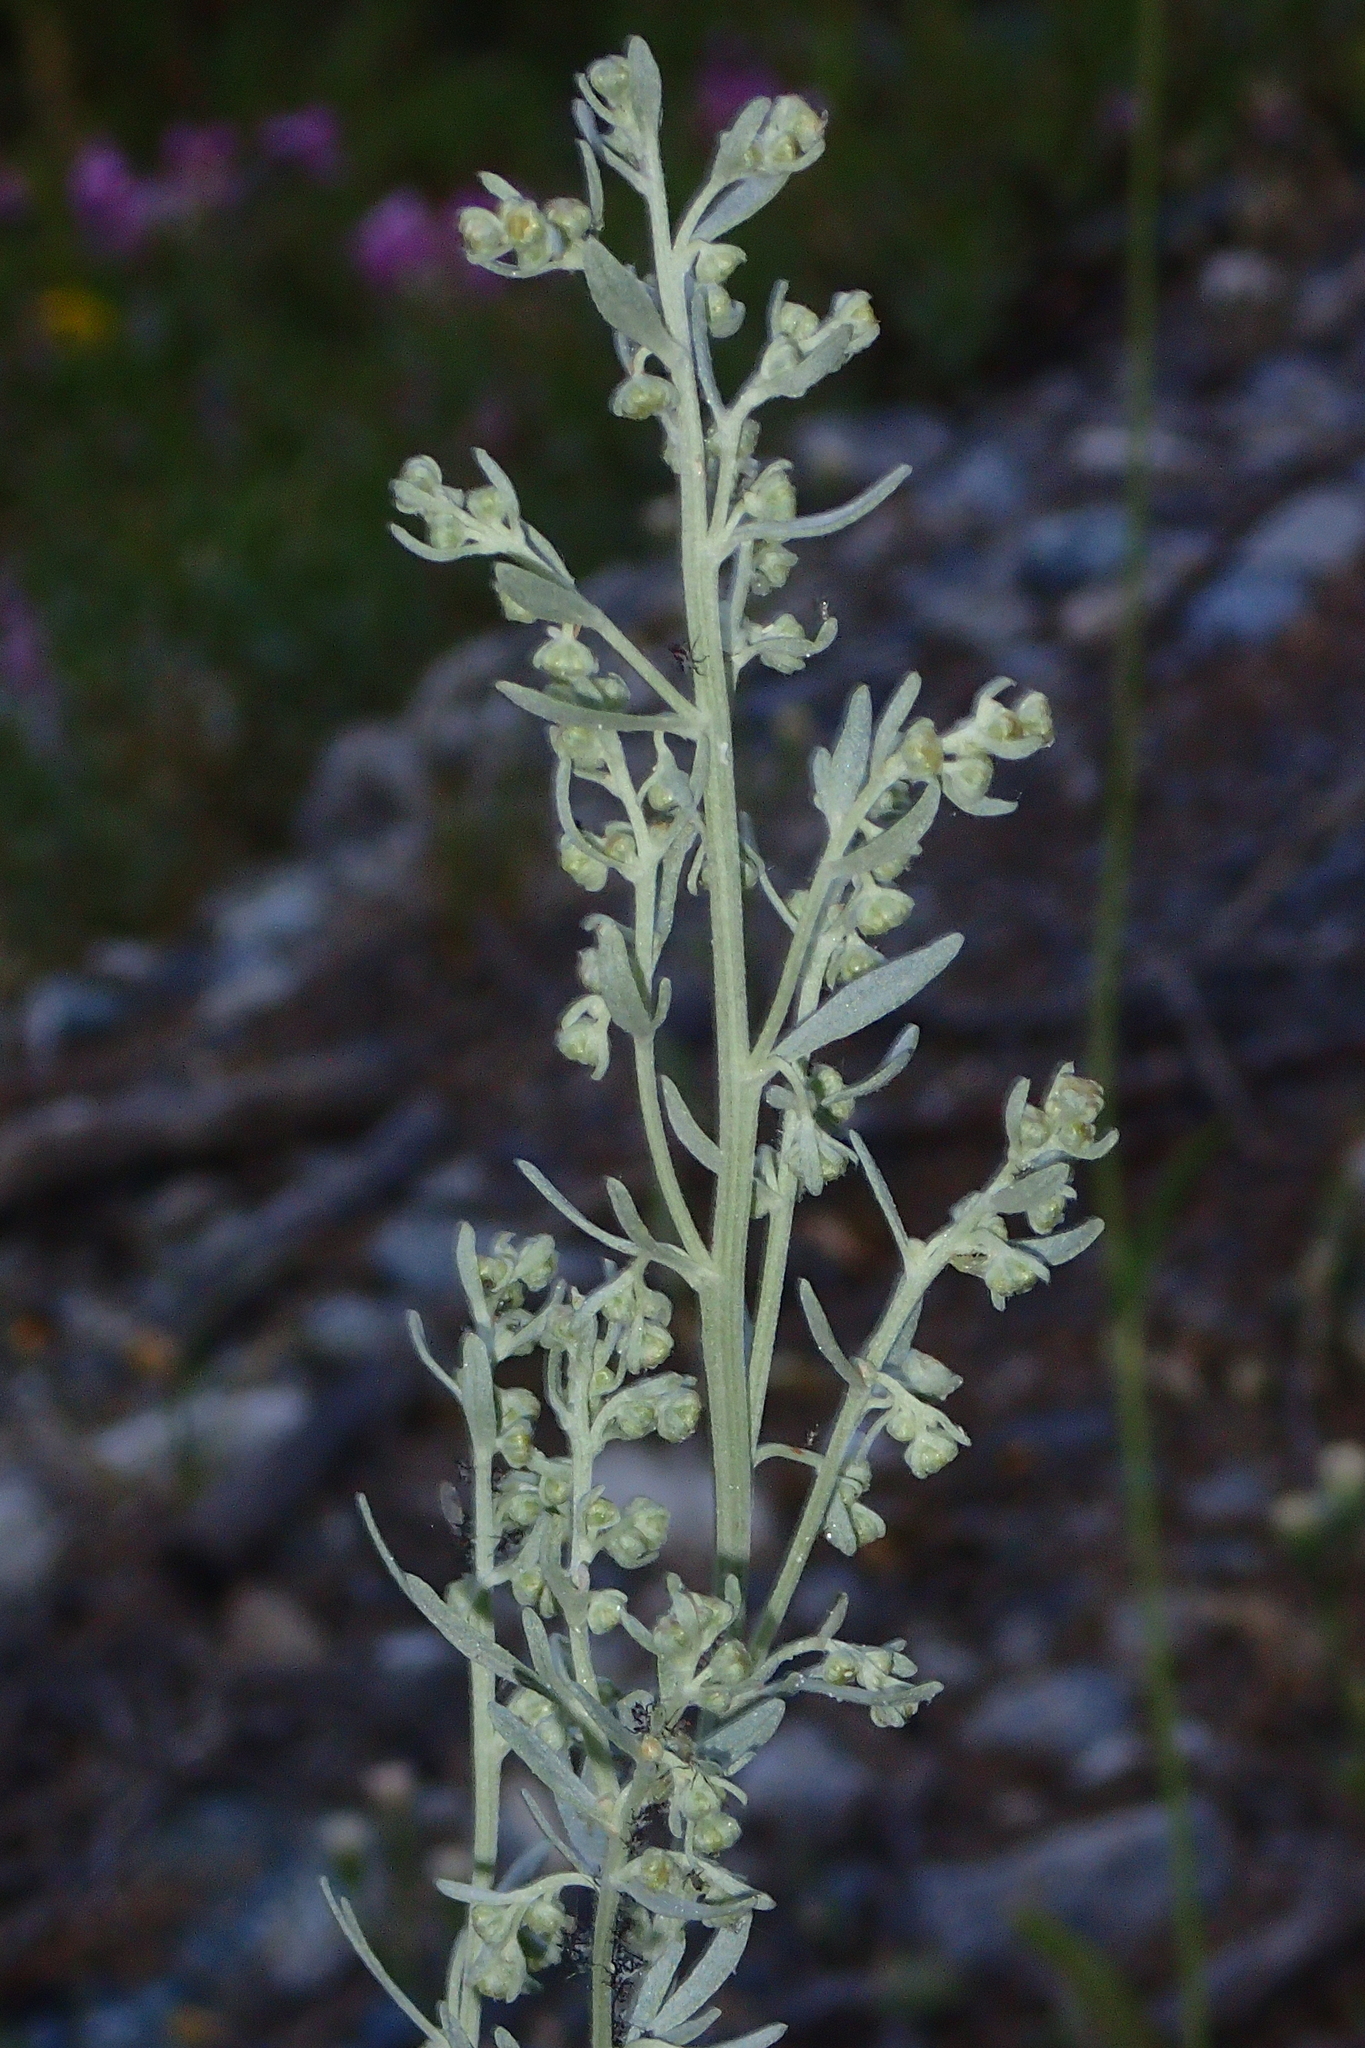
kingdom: Plantae
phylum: Tracheophyta
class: Magnoliopsida
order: Asterales
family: Asteraceae
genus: Artemisia
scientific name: Artemisia absinthium
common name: Wormwood
